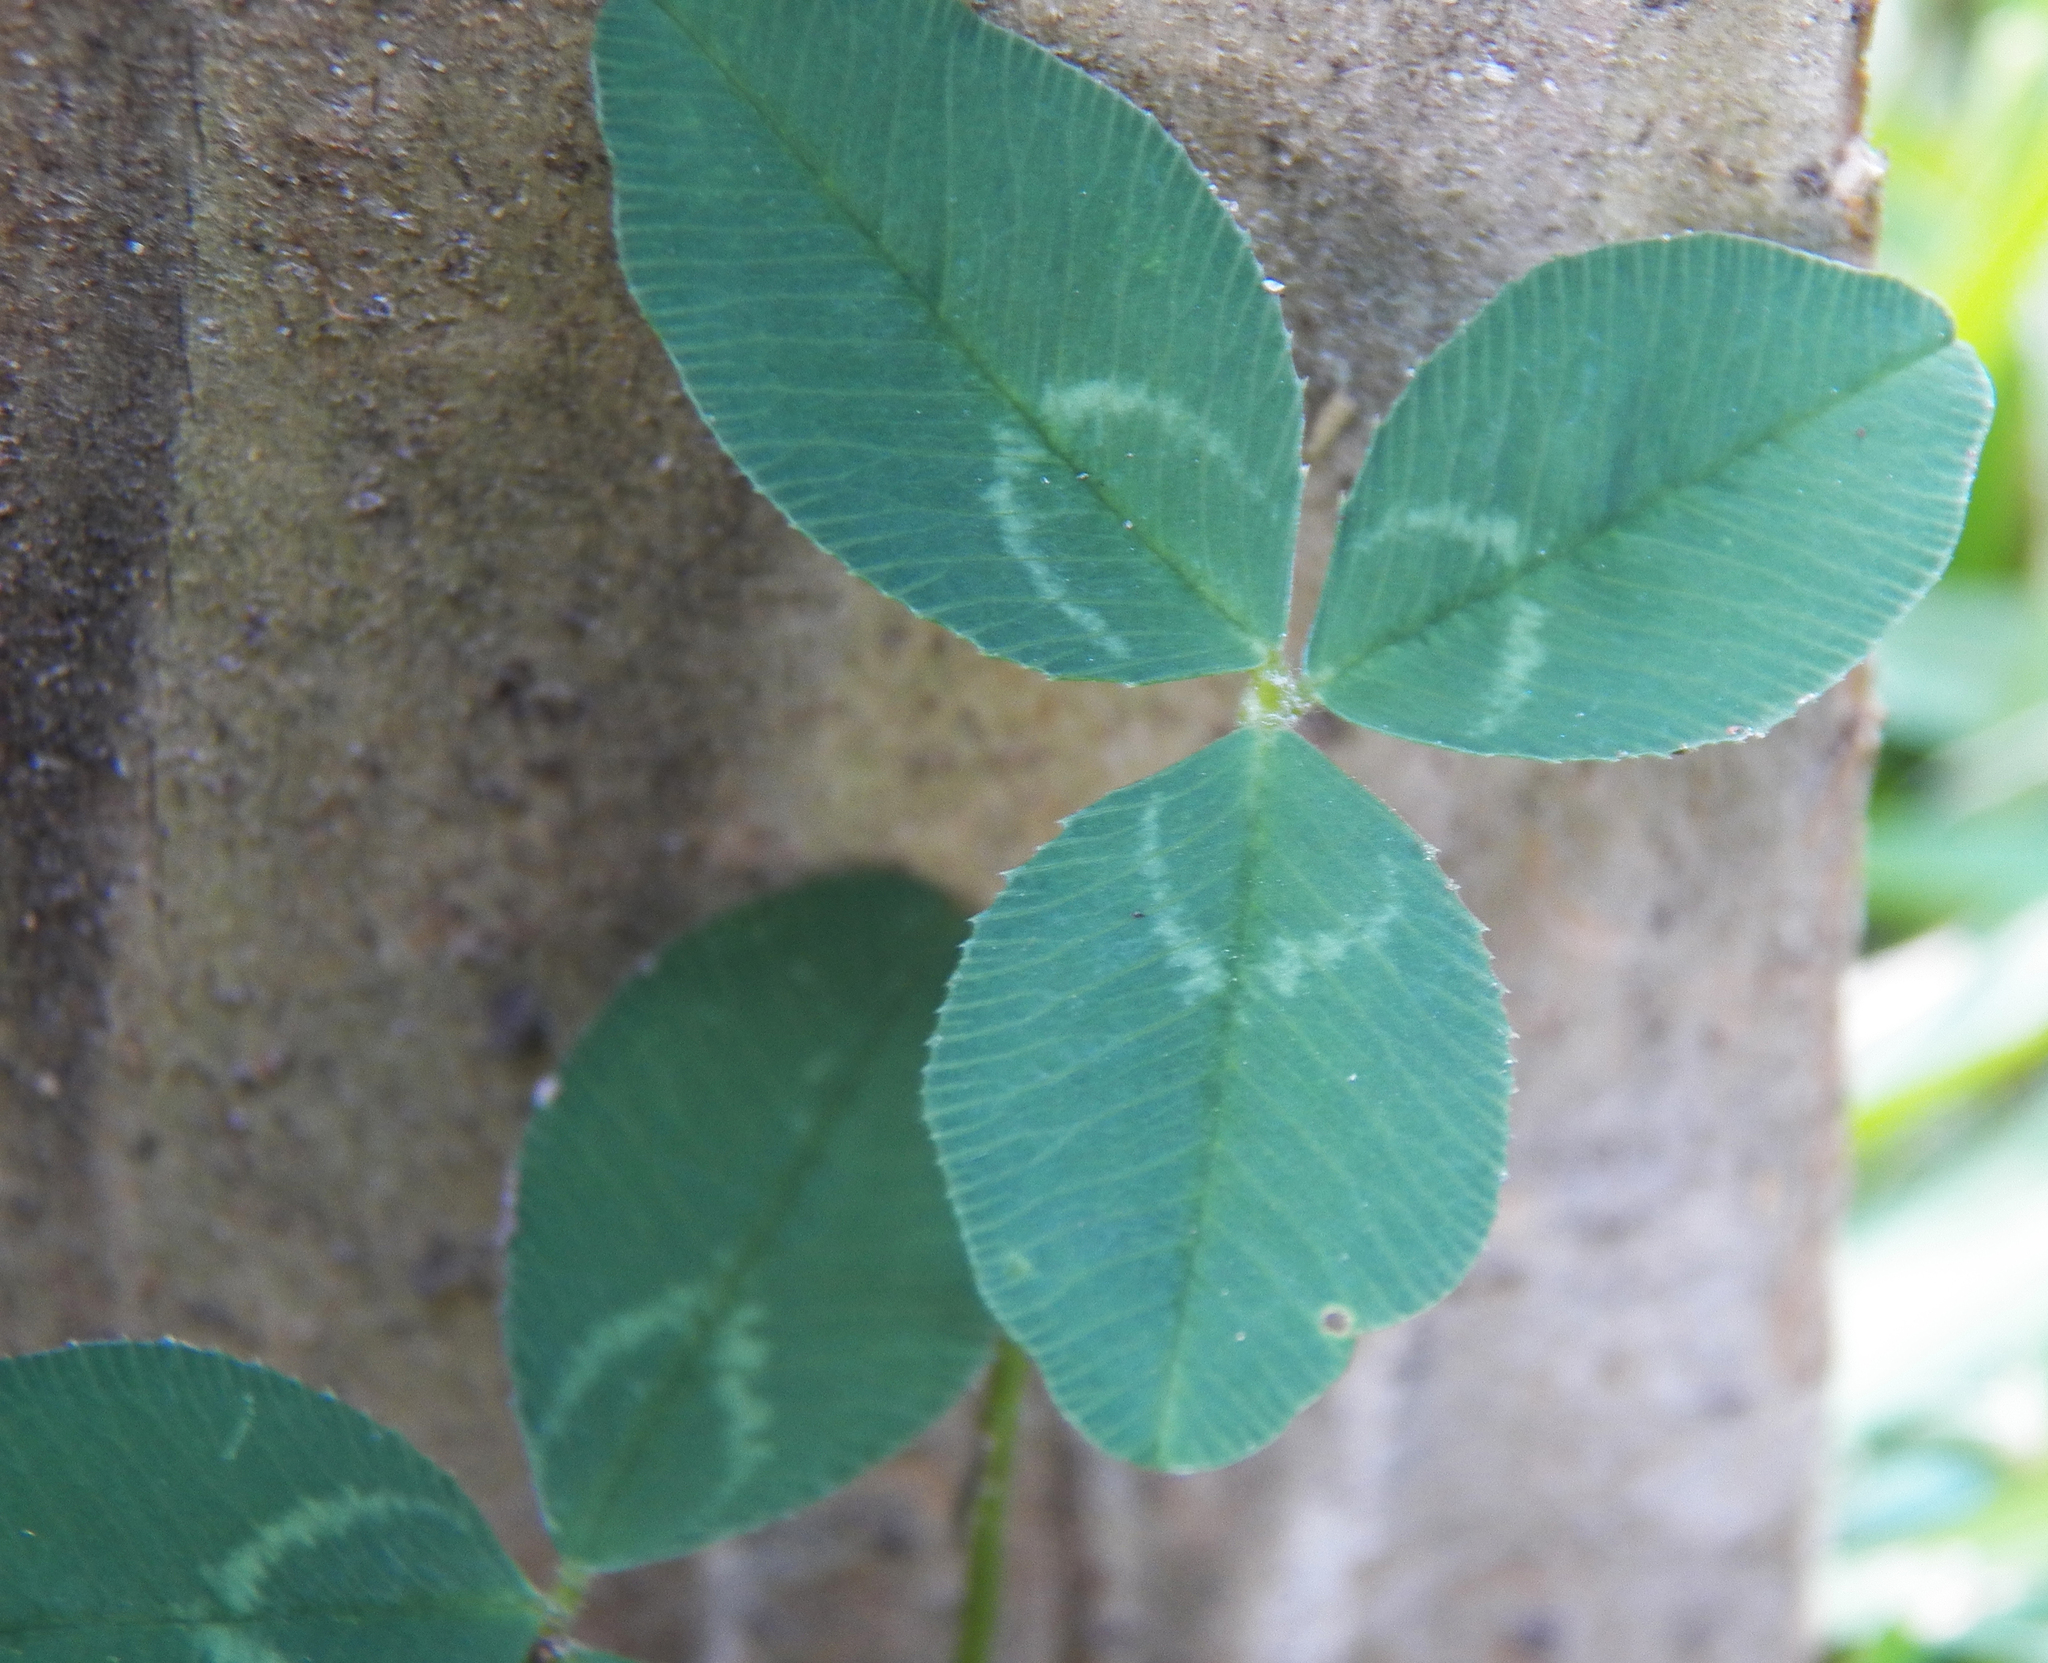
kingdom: Plantae
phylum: Tracheophyta
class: Magnoliopsida
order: Fabales
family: Fabaceae
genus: Trifolium
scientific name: Trifolium repens
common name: White clover
